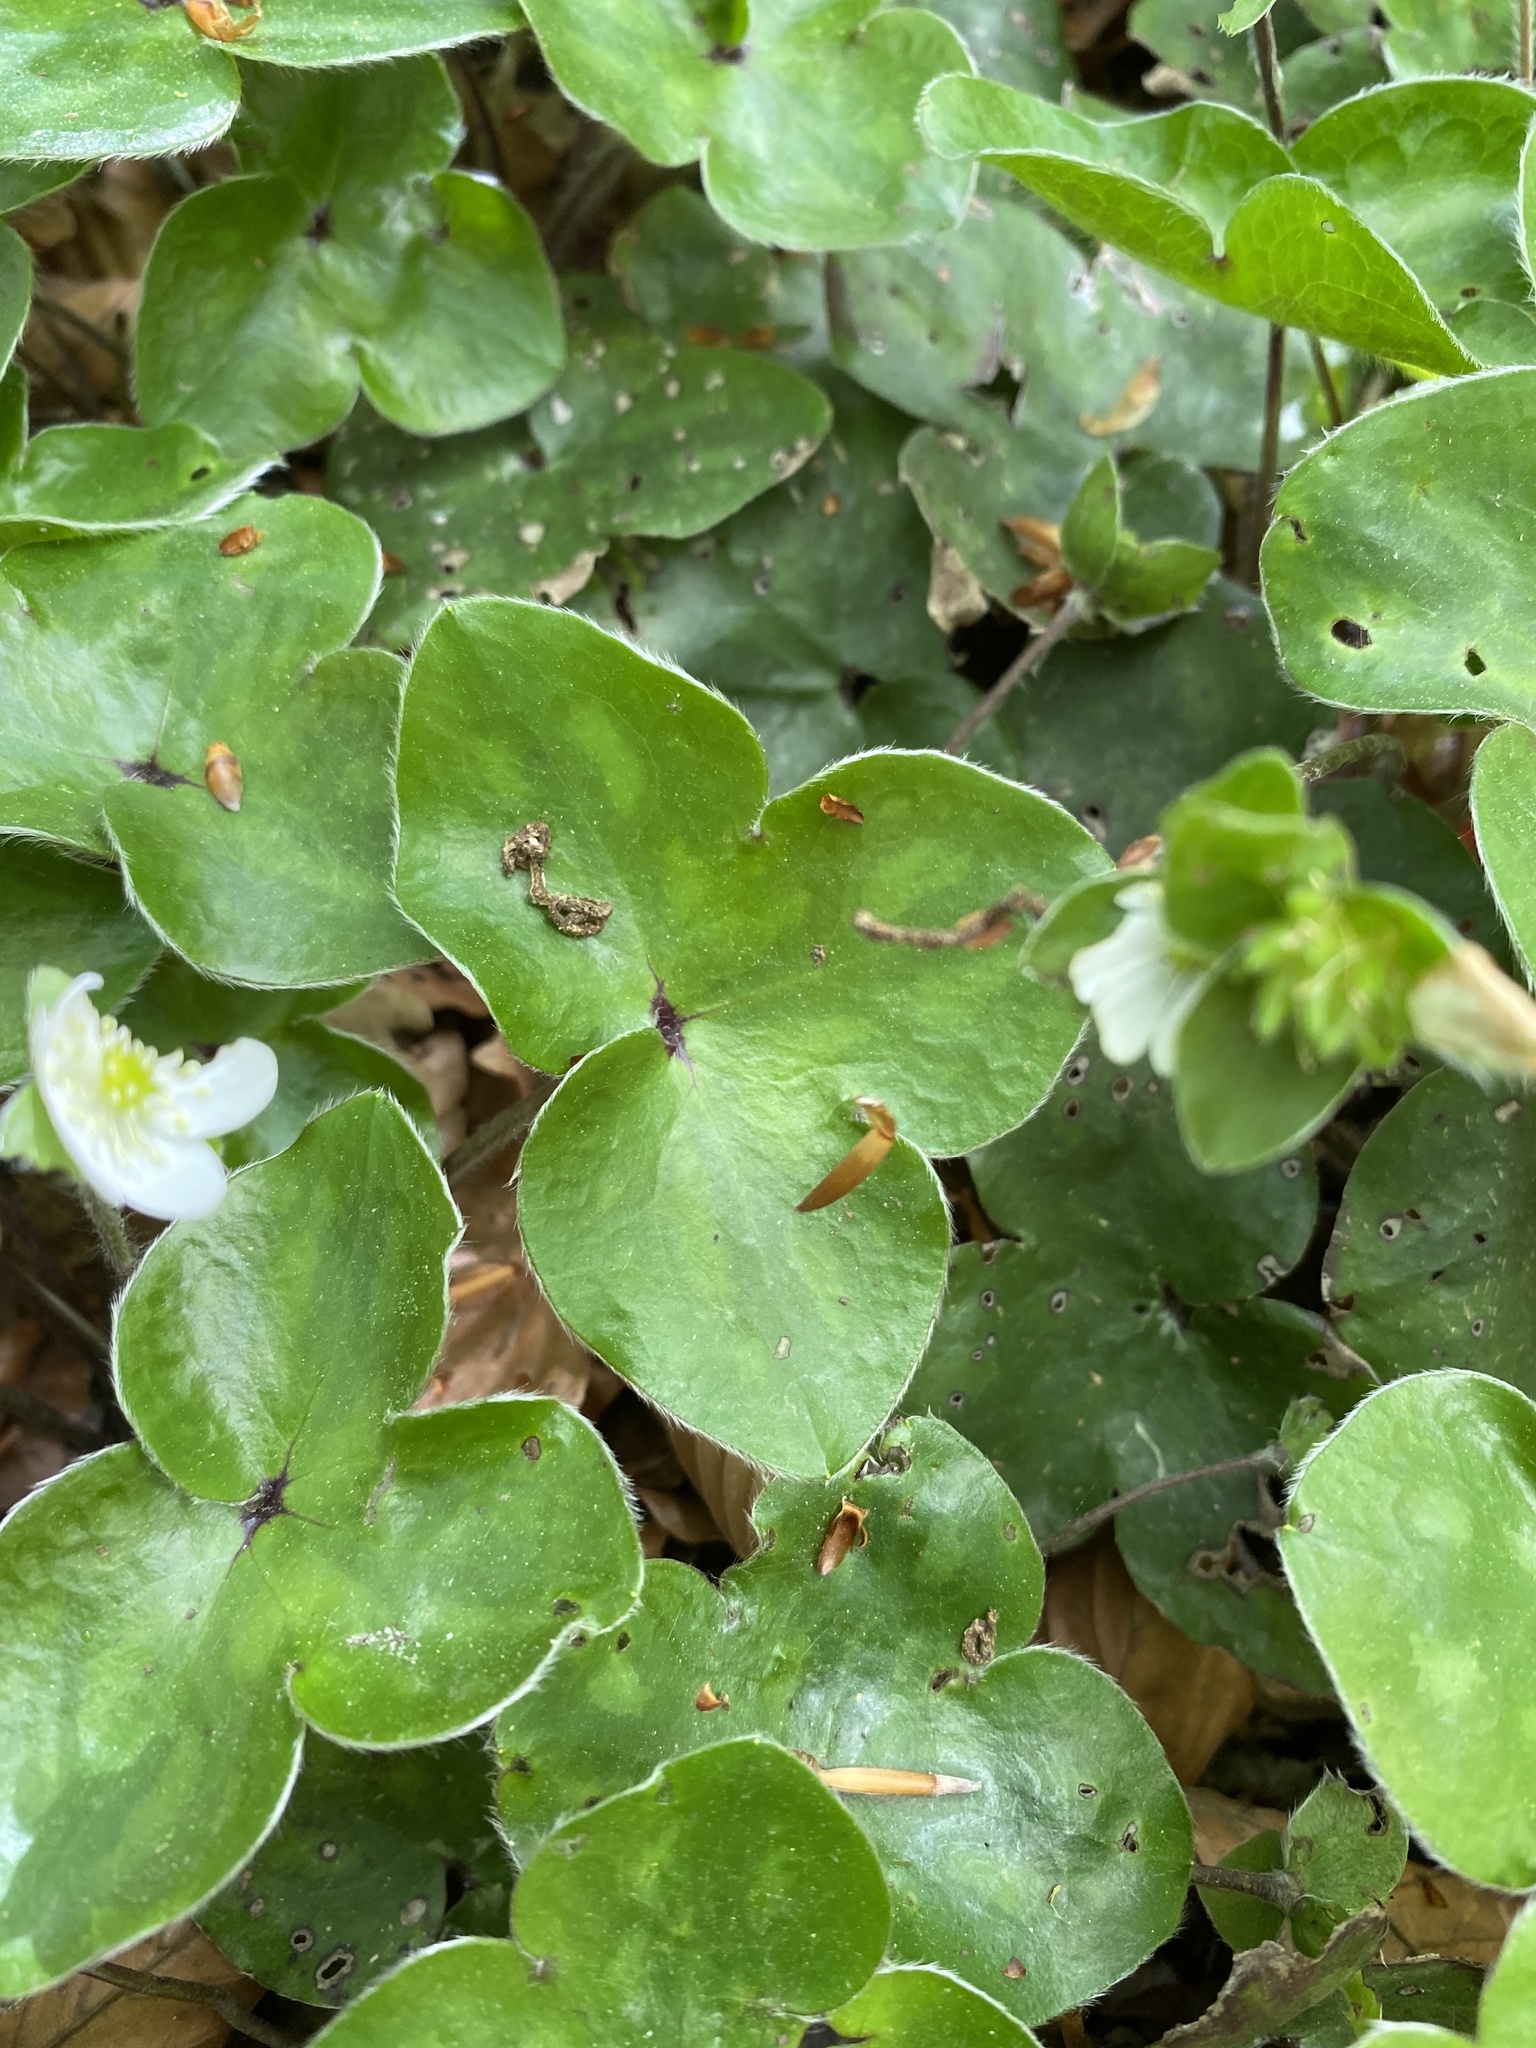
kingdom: Plantae
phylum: Tracheophyta
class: Magnoliopsida
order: Ranunculales
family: Ranunculaceae
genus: Hepatica
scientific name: Hepatica nobilis
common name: Liverleaf
